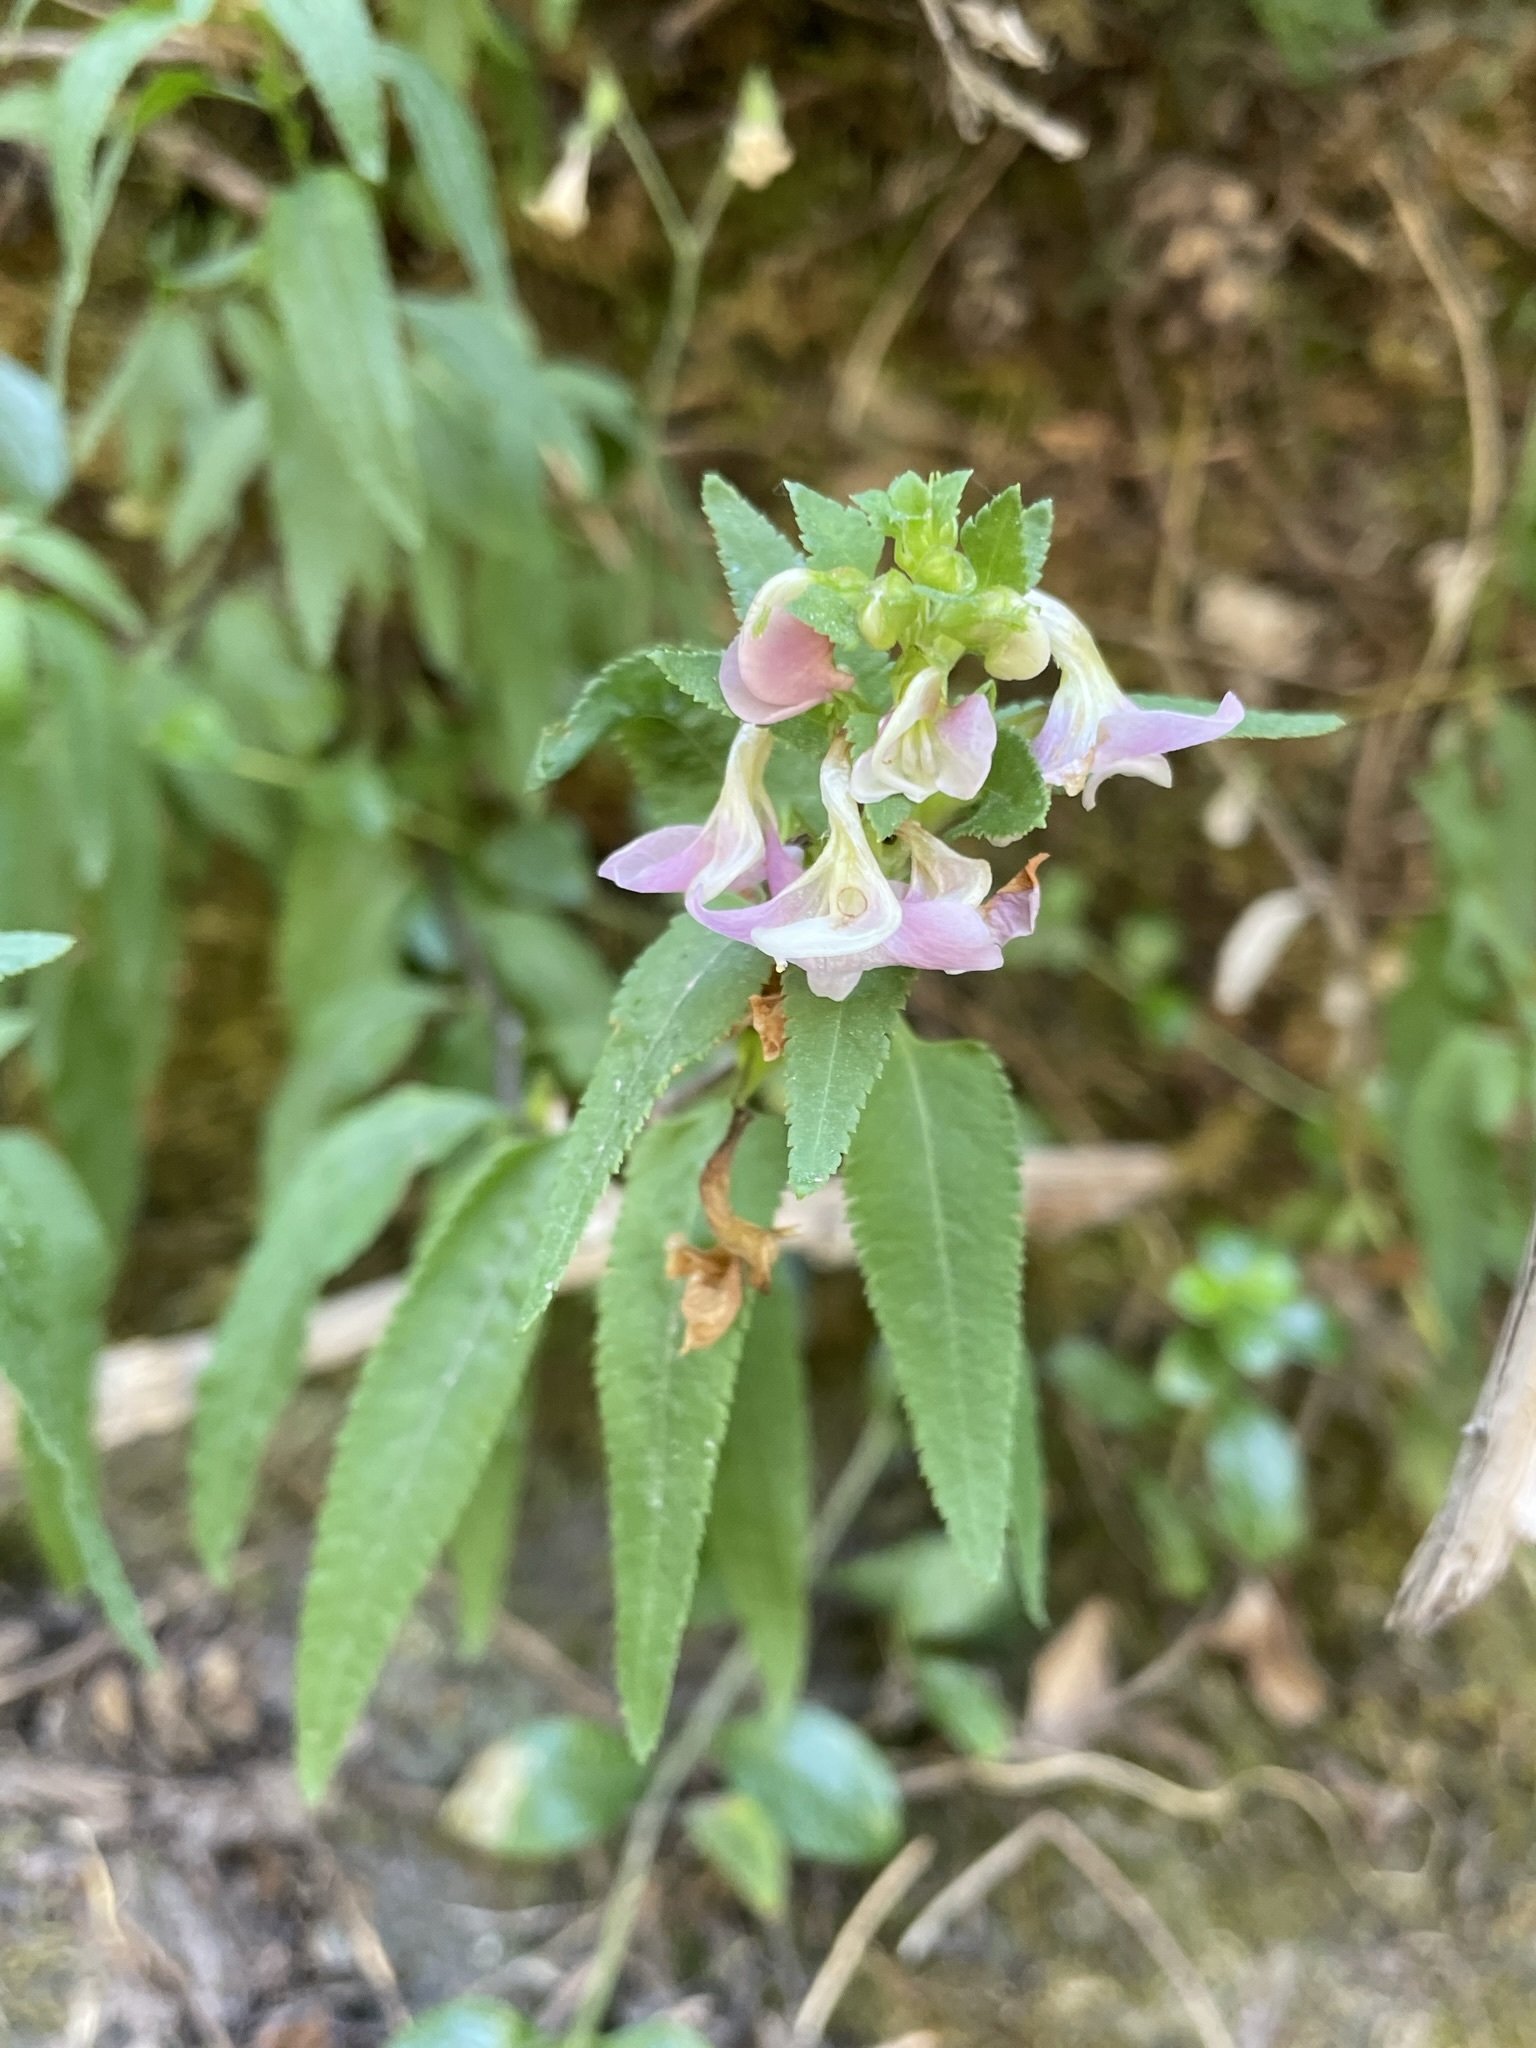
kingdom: Plantae
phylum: Tracheophyta
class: Magnoliopsida
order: Lamiales
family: Orobanchaceae
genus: Pedicularis
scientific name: Pedicularis racemosa
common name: Leafy lousewort
